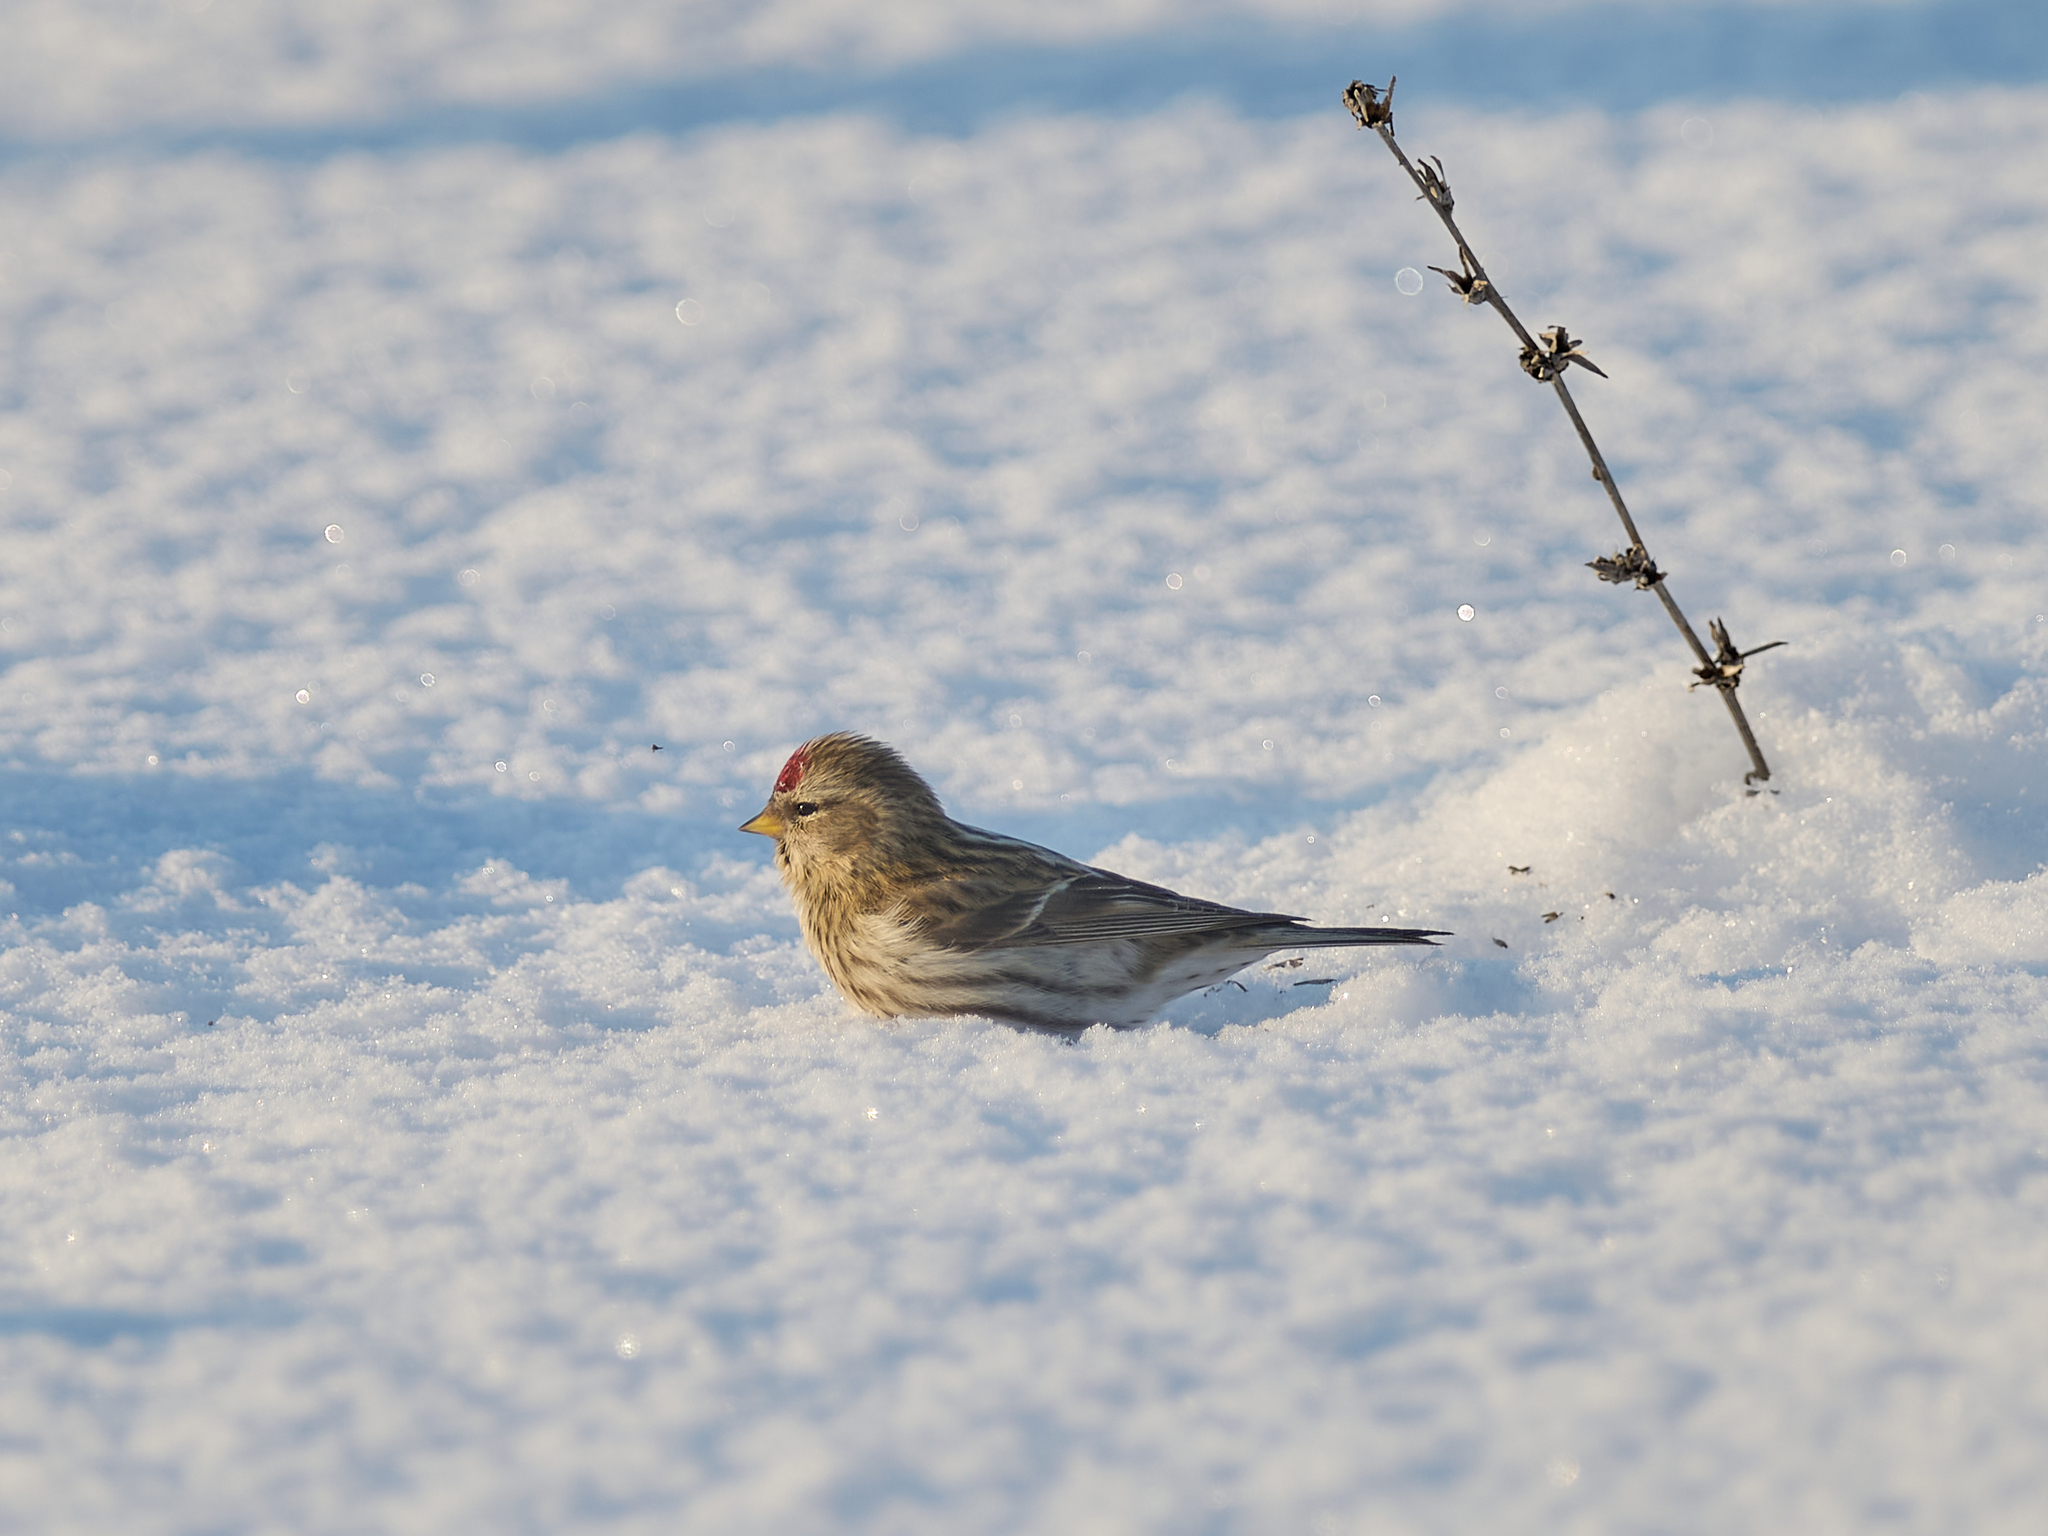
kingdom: Animalia
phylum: Chordata
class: Aves
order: Passeriformes
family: Fringillidae
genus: Acanthis
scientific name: Acanthis flammea
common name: Common redpoll
